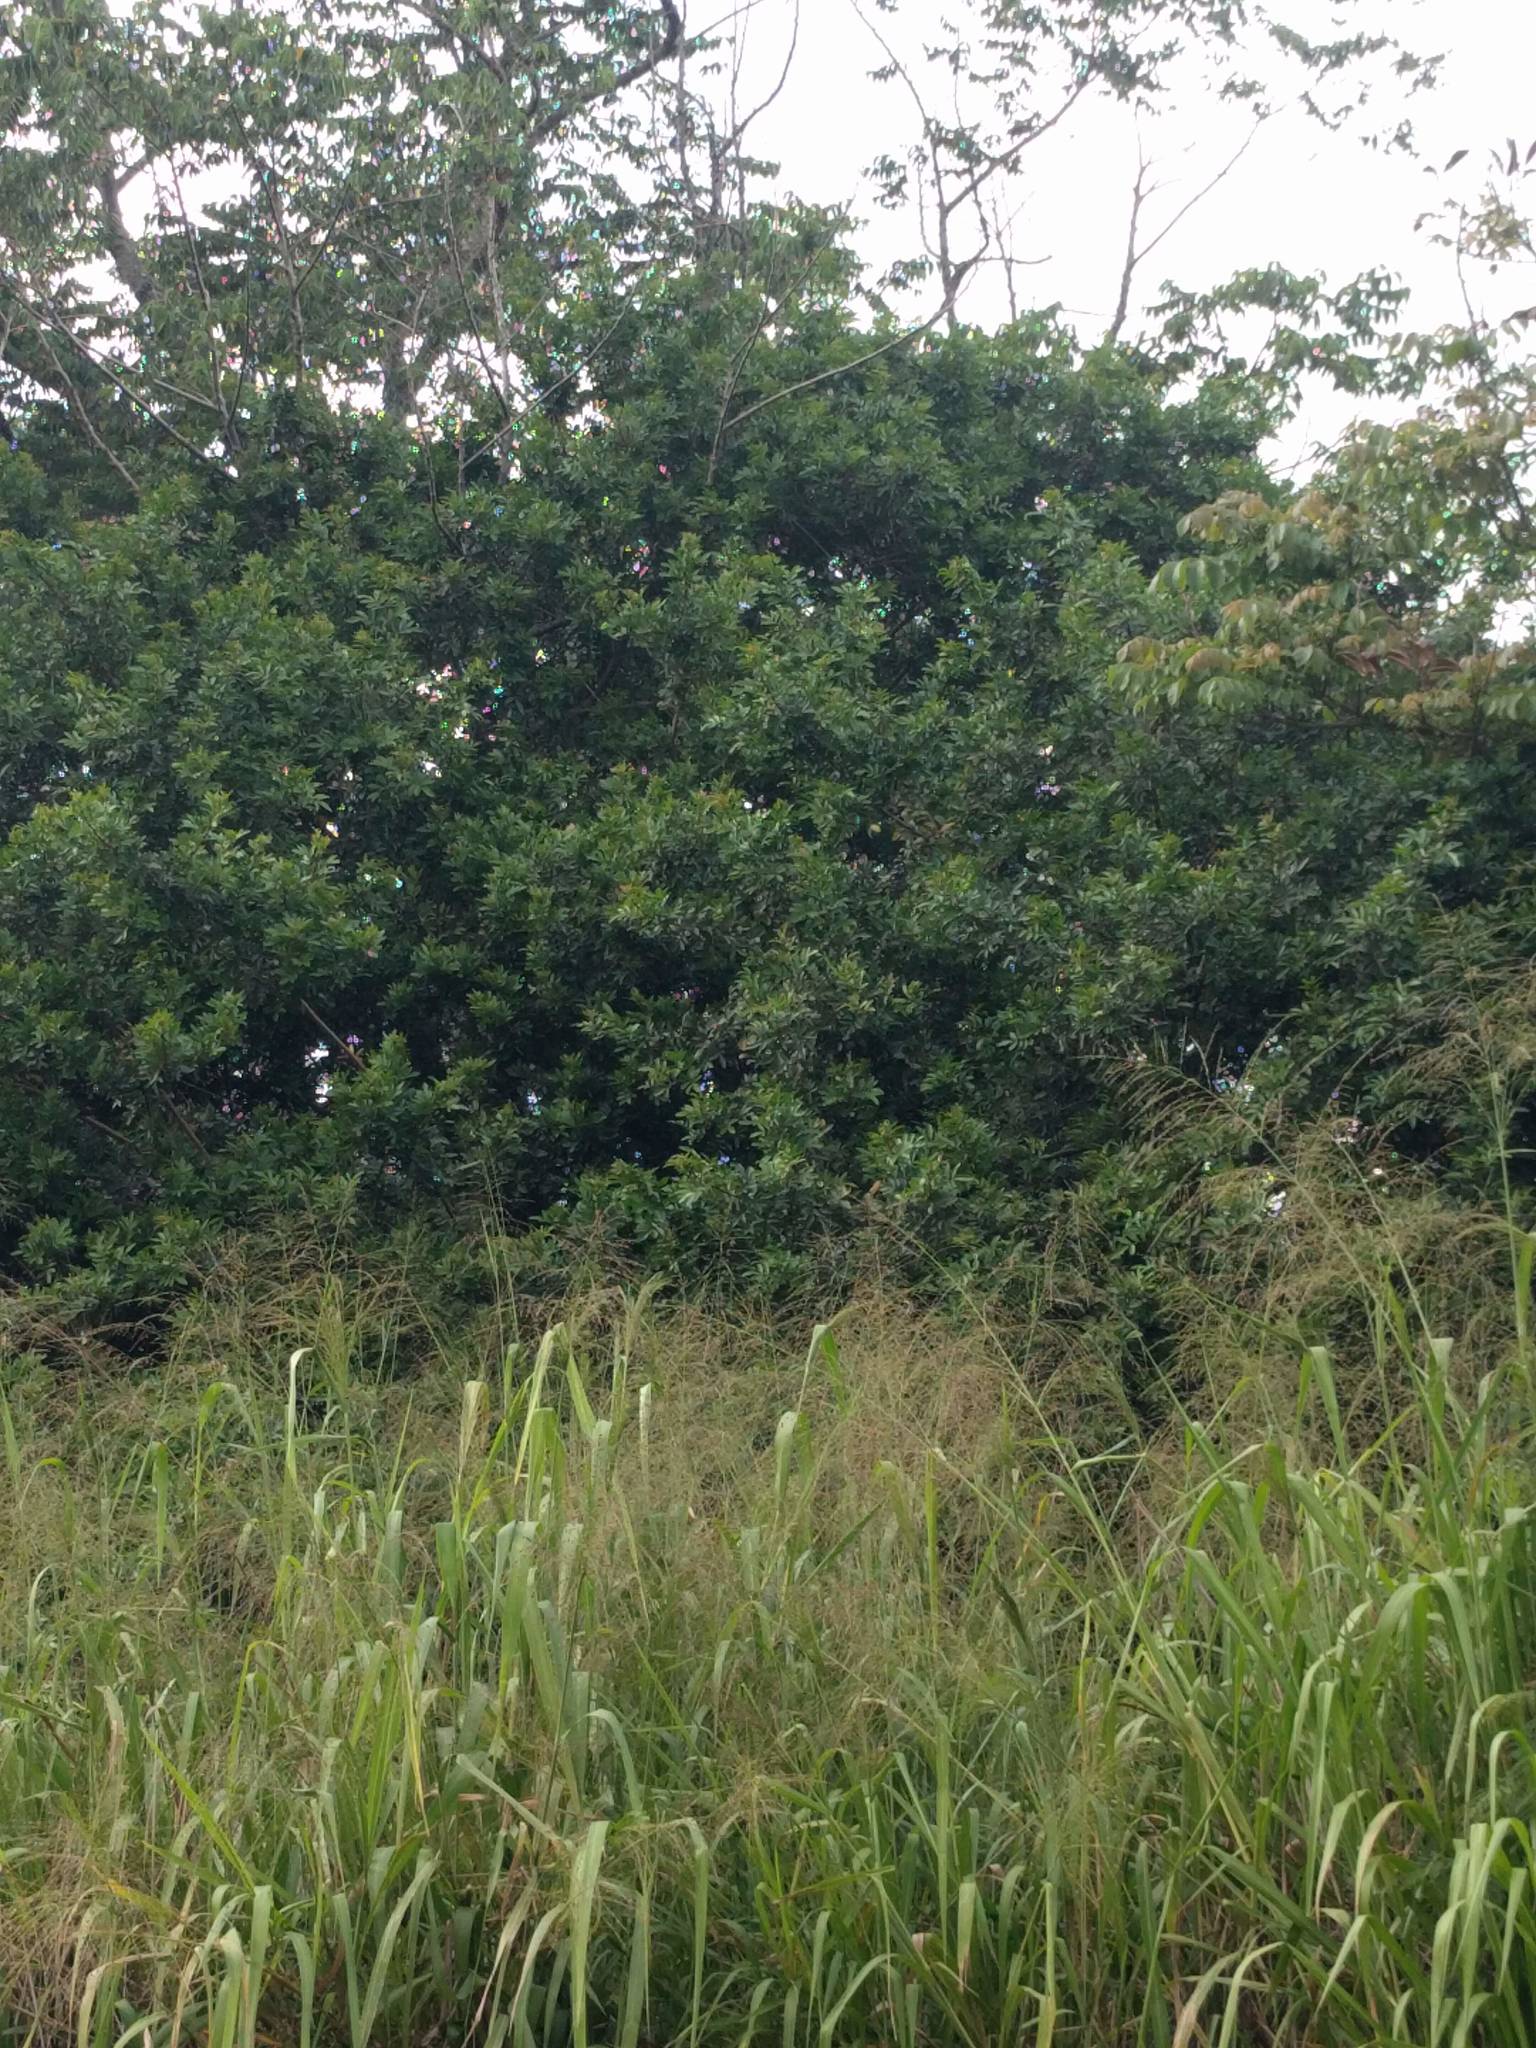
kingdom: Plantae
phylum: Tracheophyta
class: Magnoliopsida
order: Sapindales
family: Anacardiaceae
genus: Schinus
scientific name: Schinus terebinthifolia
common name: Brazilian peppertree
